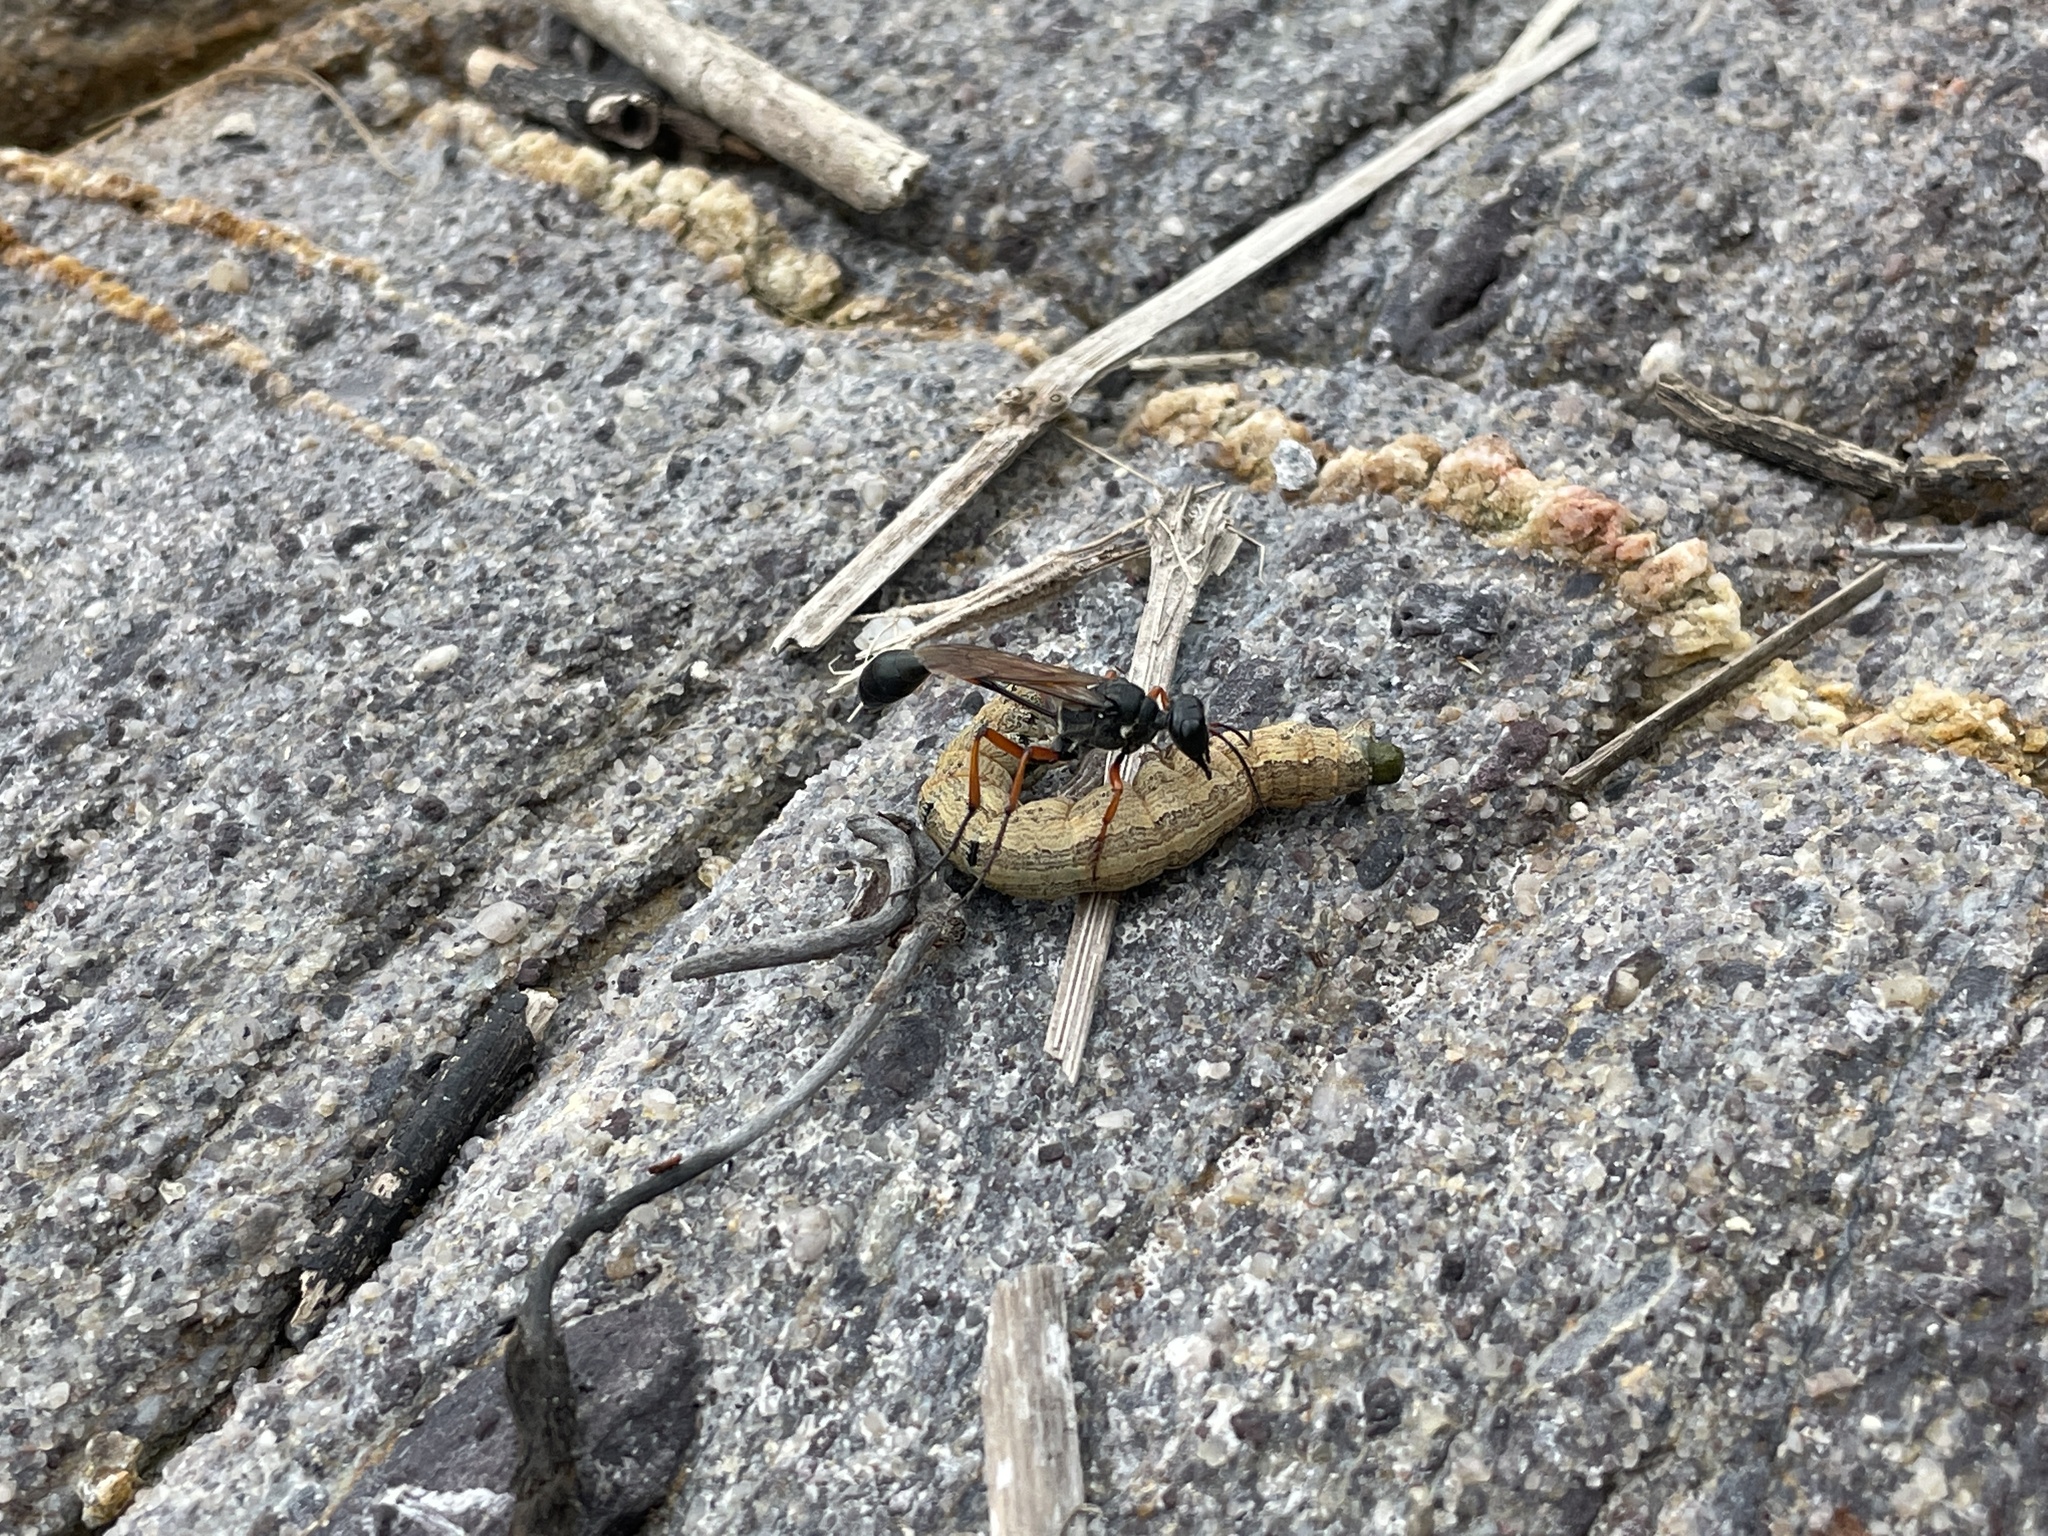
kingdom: Animalia
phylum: Arthropoda
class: Insecta
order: Hymenoptera
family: Sphecidae
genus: Ammophila
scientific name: Ammophila clavus
